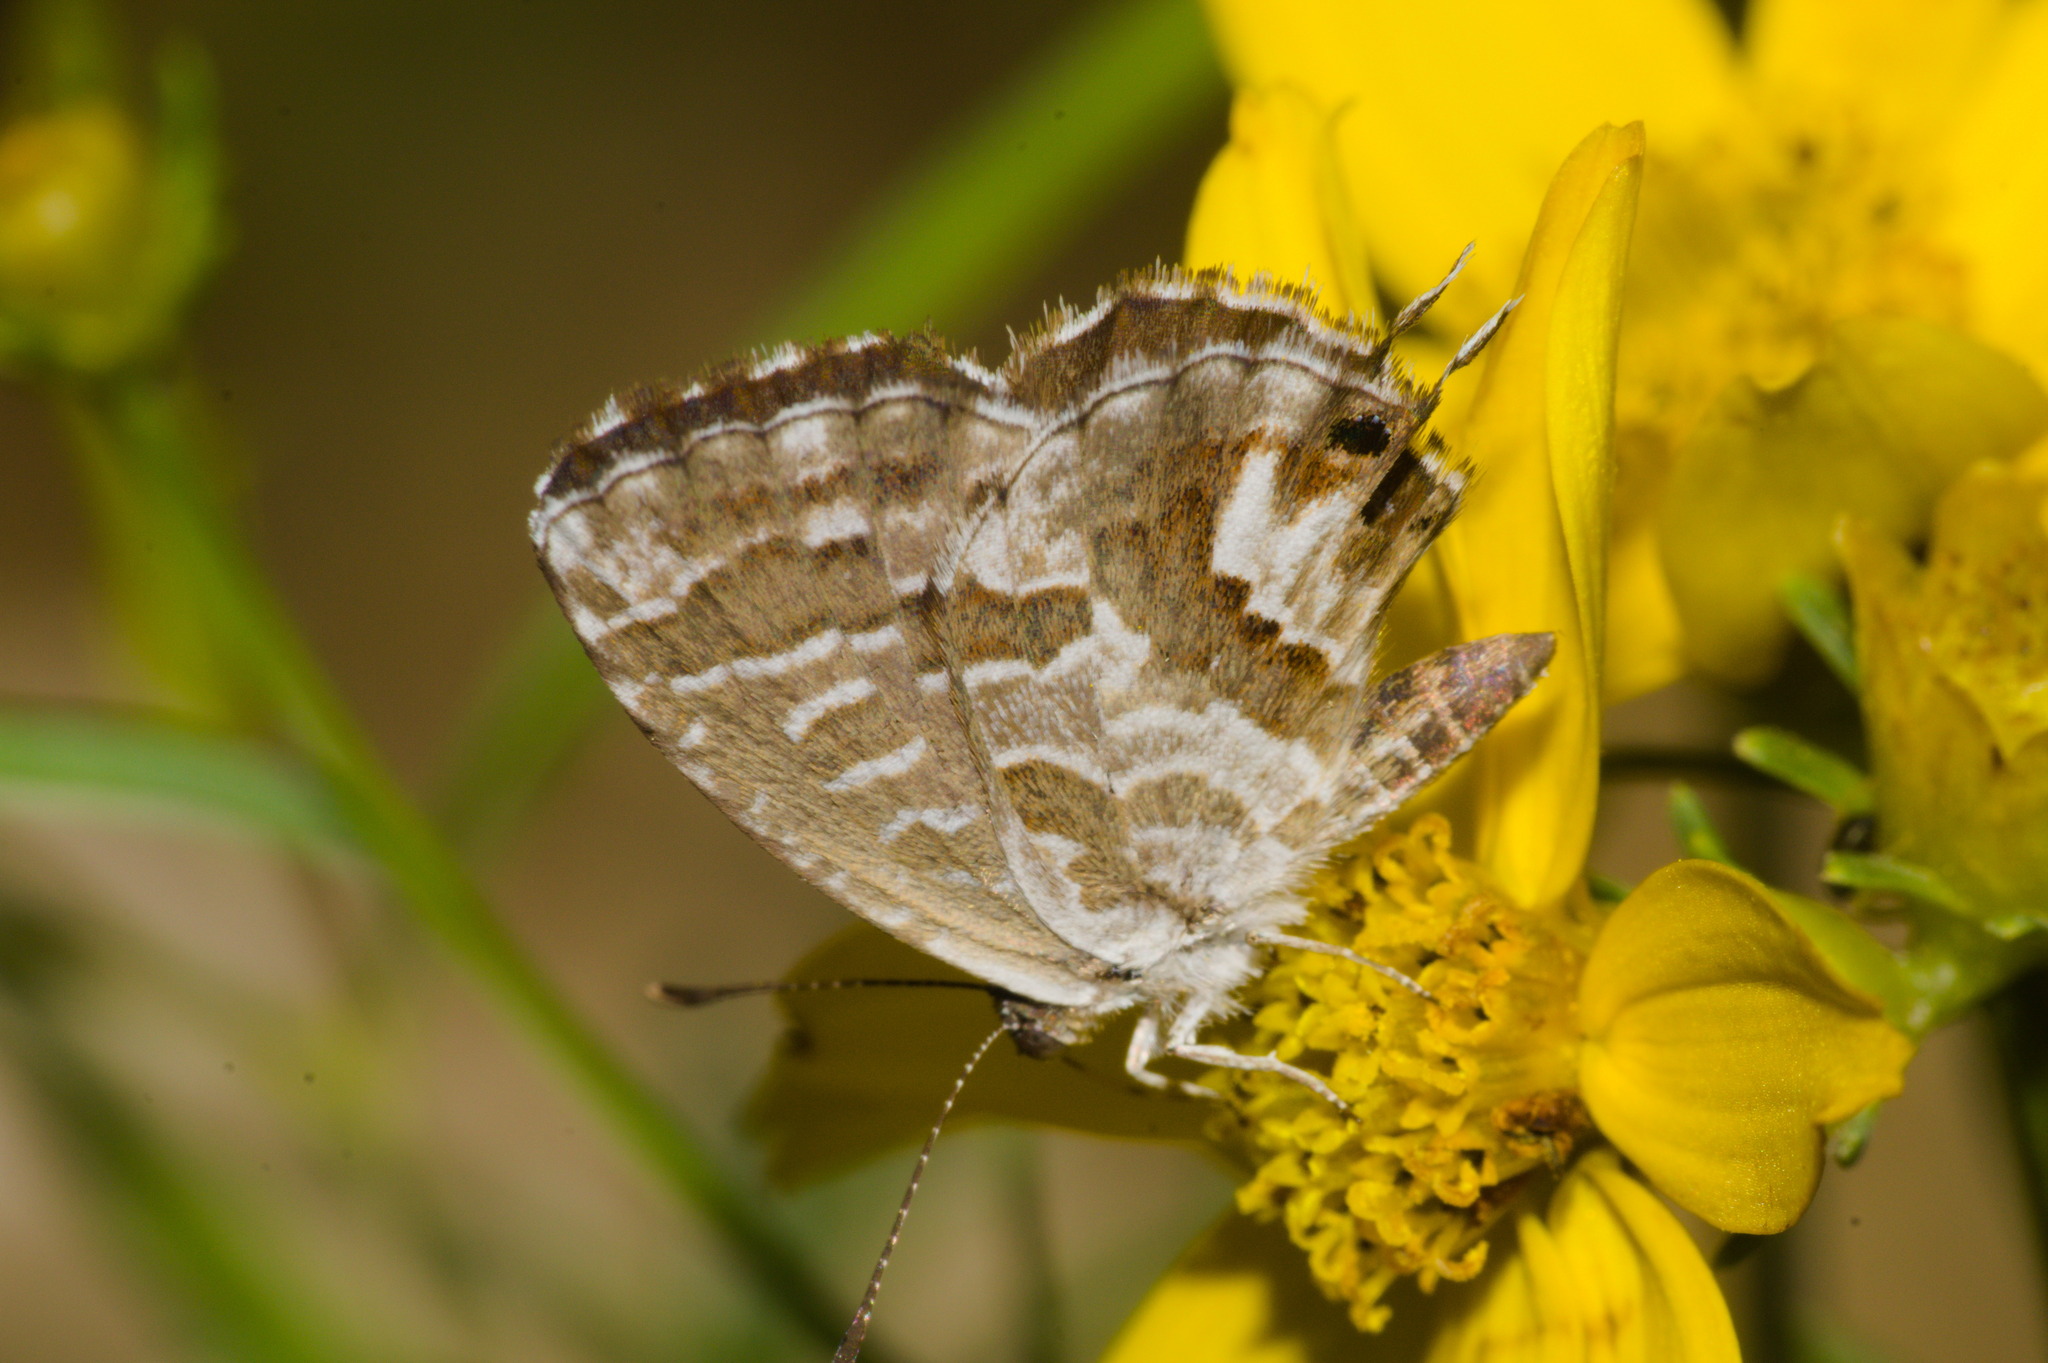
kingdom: Animalia
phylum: Arthropoda
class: Insecta
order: Lepidoptera
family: Lycaenidae
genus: Cacyreus
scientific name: Cacyreus marshalli
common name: Geranium bronze
